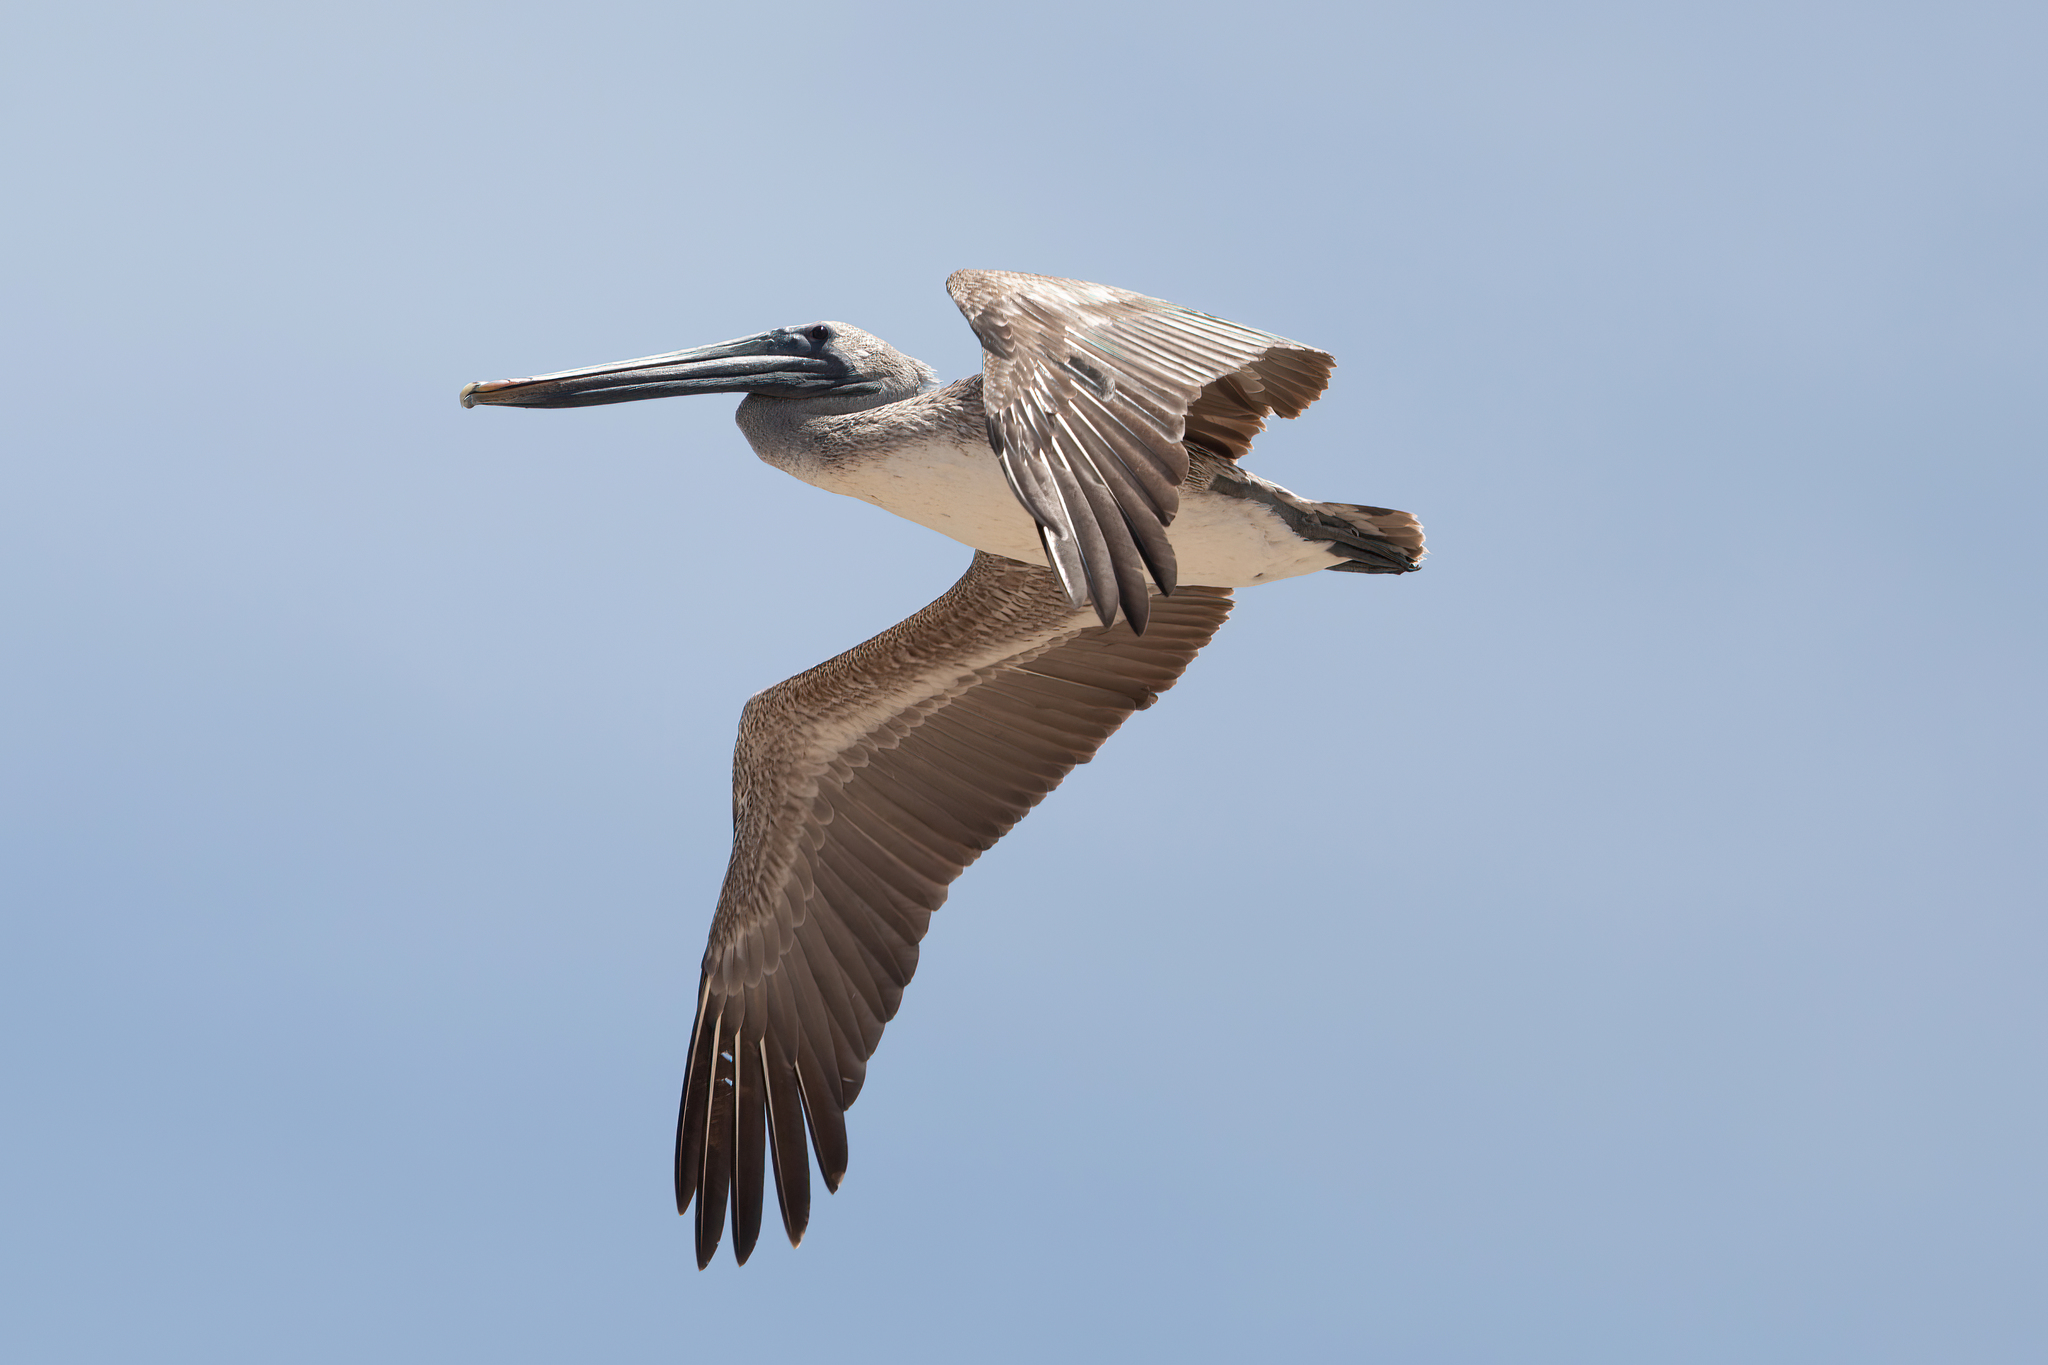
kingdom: Animalia
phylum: Chordata
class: Aves
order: Pelecaniformes
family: Pelecanidae
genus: Pelecanus
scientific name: Pelecanus occidentalis
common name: Brown pelican
